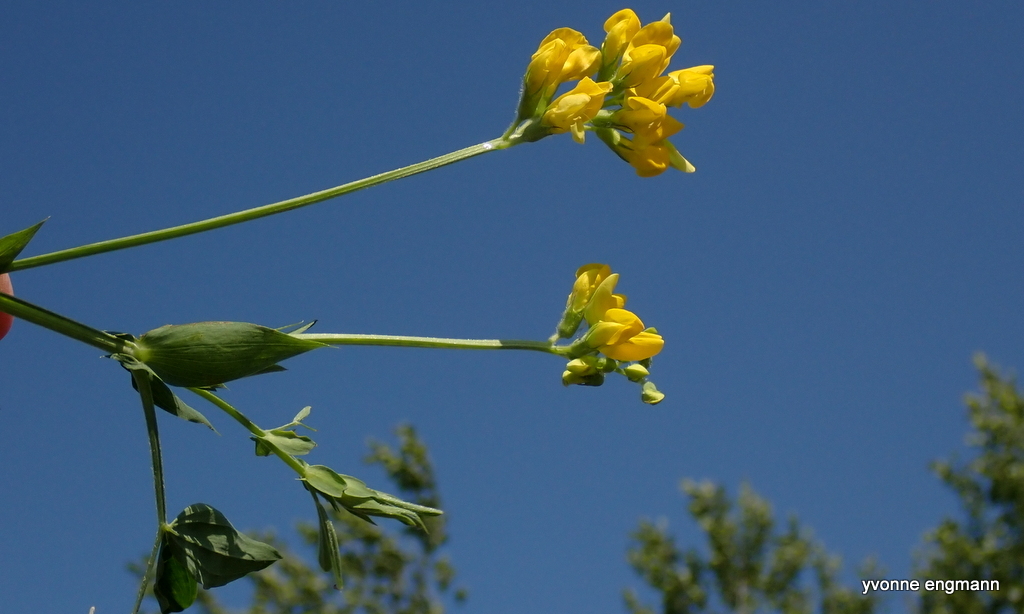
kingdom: Plantae
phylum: Tracheophyta
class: Magnoliopsida
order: Fabales
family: Fabaceae
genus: Lathyrus
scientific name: Lathyrus pratensis
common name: Meadow vetchling
